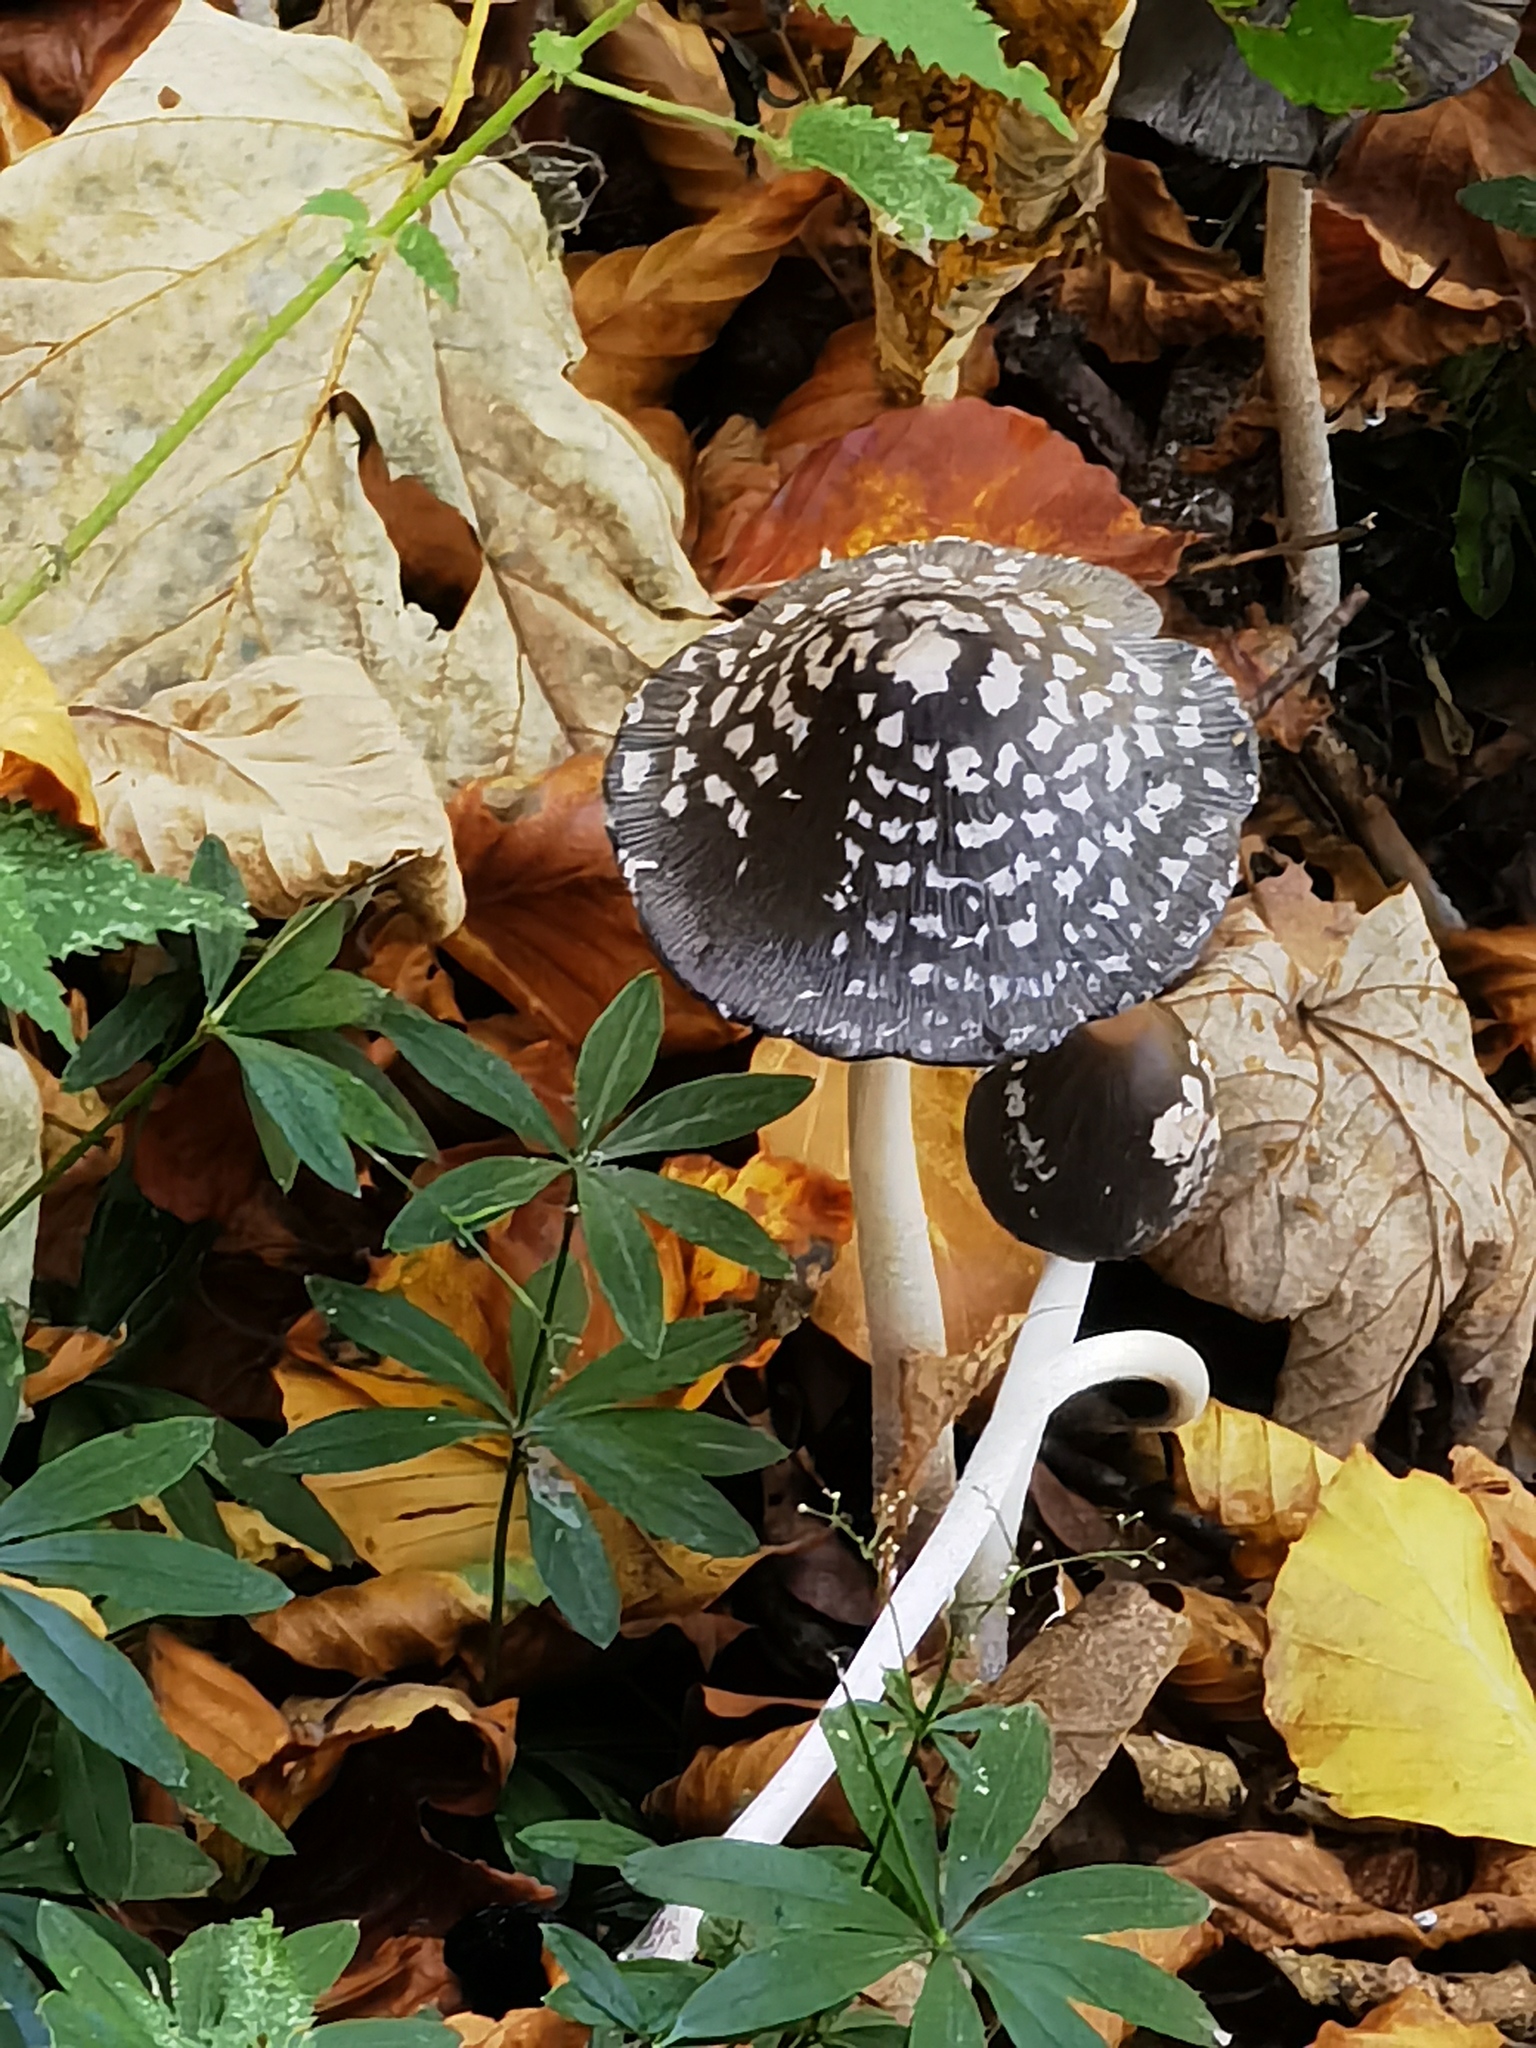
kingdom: Fungi
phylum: Basidiomycota
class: Agaricomycetes
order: Agaricales
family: Psathyrellaceae
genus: Coprinopsis
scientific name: Coprinopsis picacea
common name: Magpie inkcap
